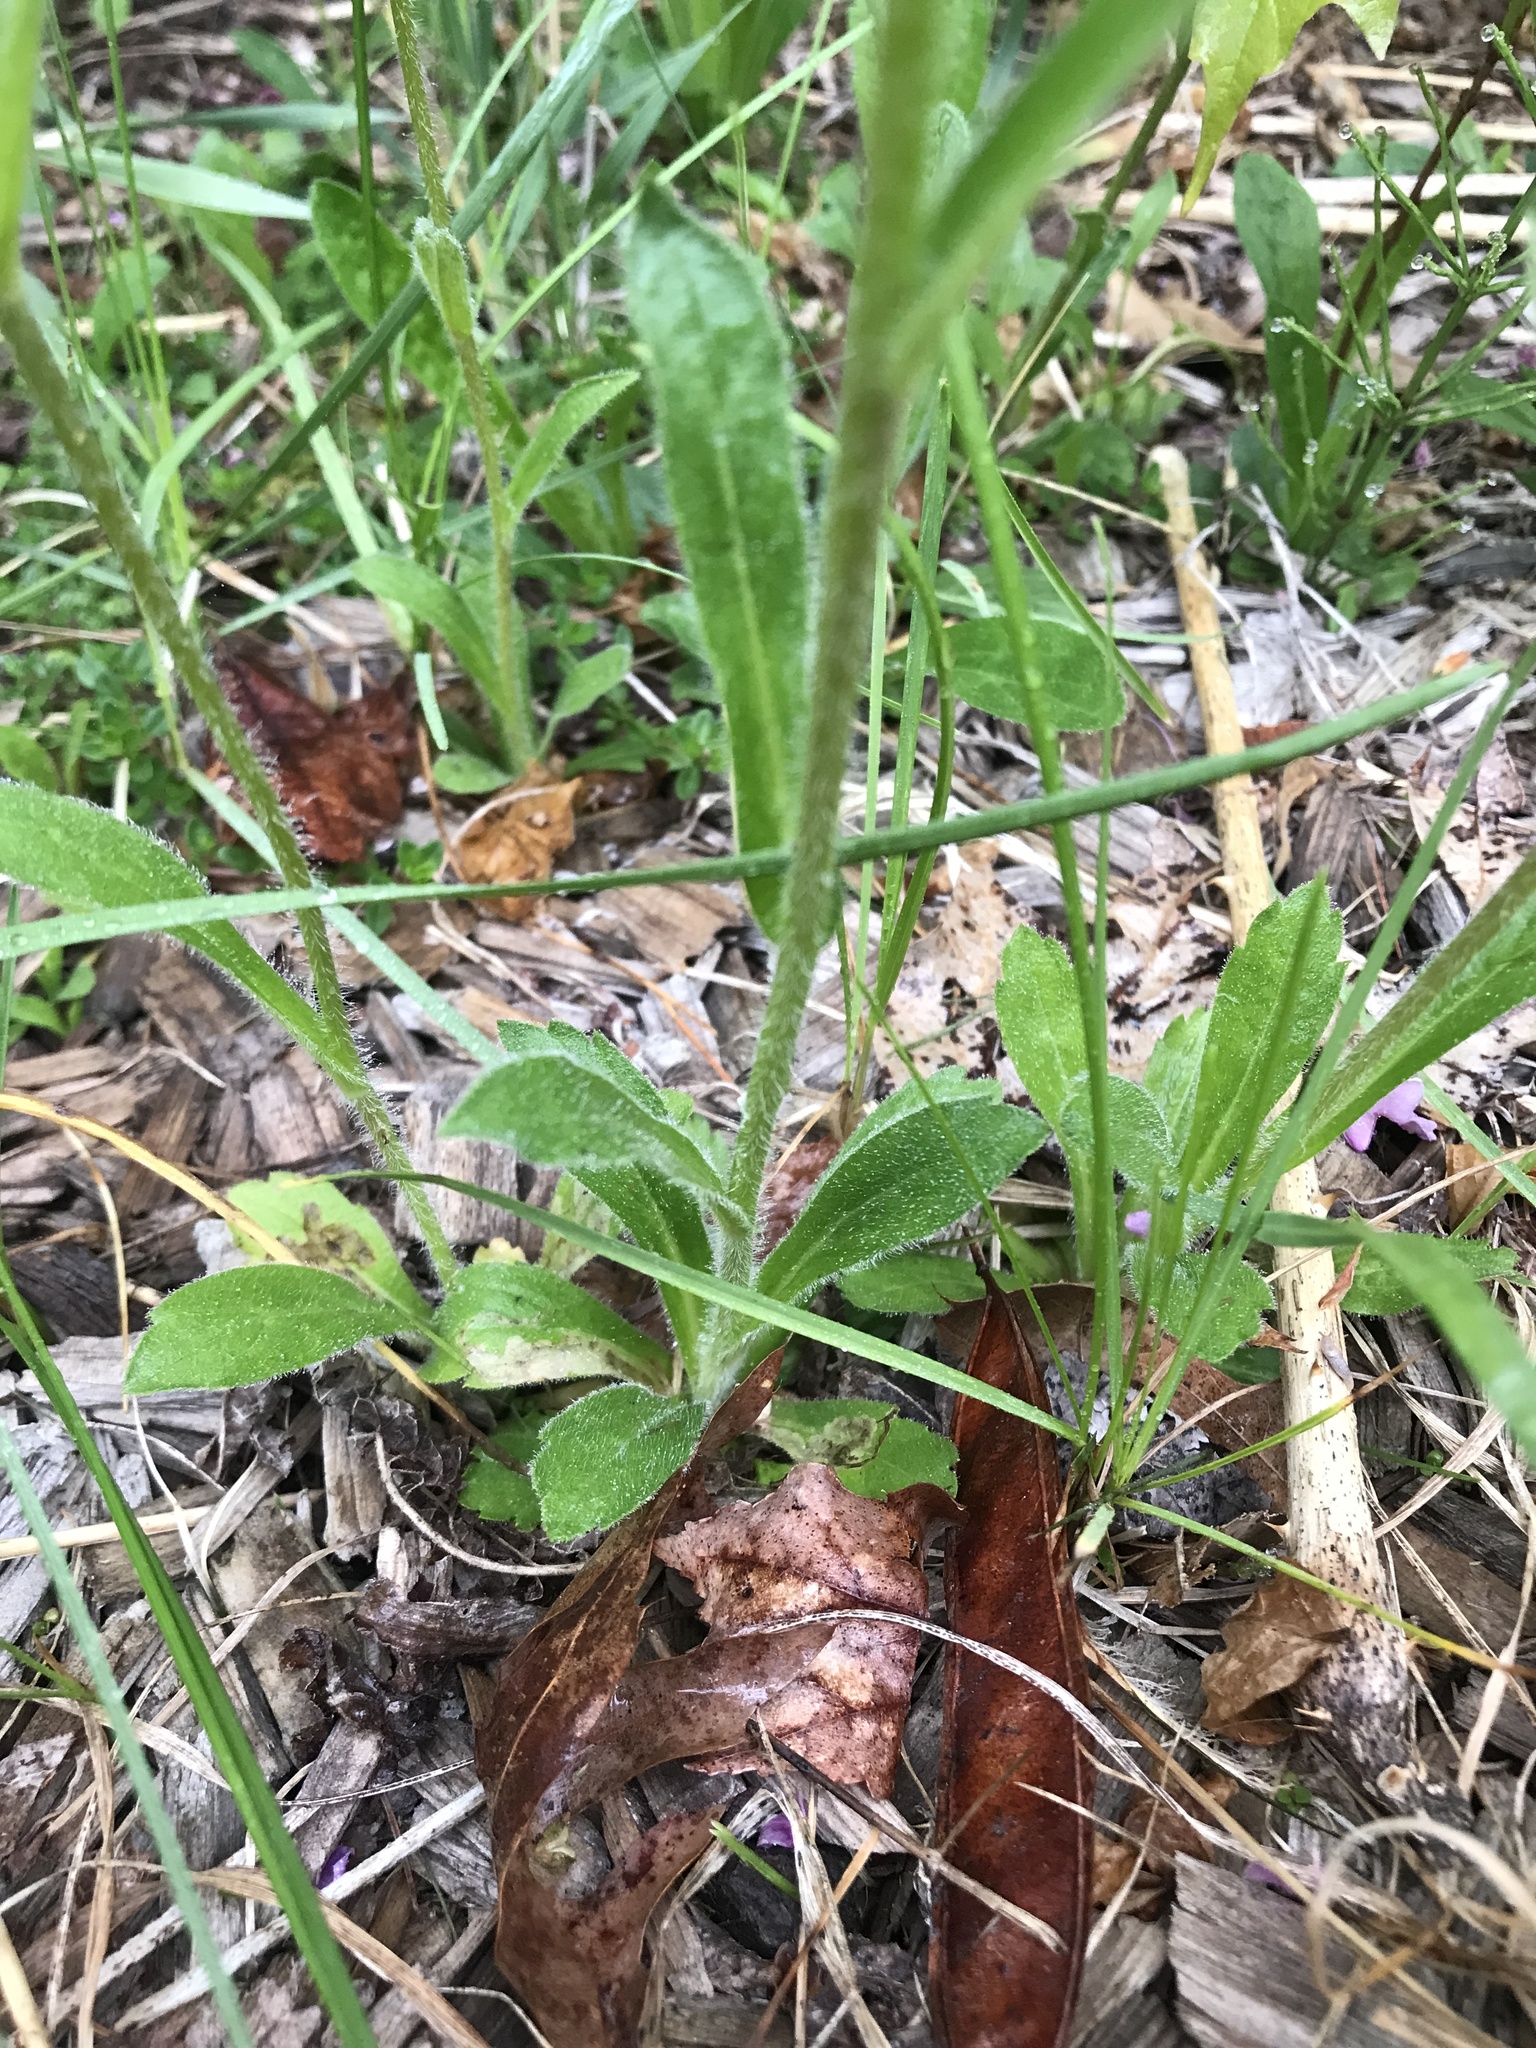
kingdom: Plantae
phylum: Tracheophyta
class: Magnoliopsida
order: Asterales
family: Asteraceae
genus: Erigeron
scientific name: Erigeron pulchellus
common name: Hairy fleabane
